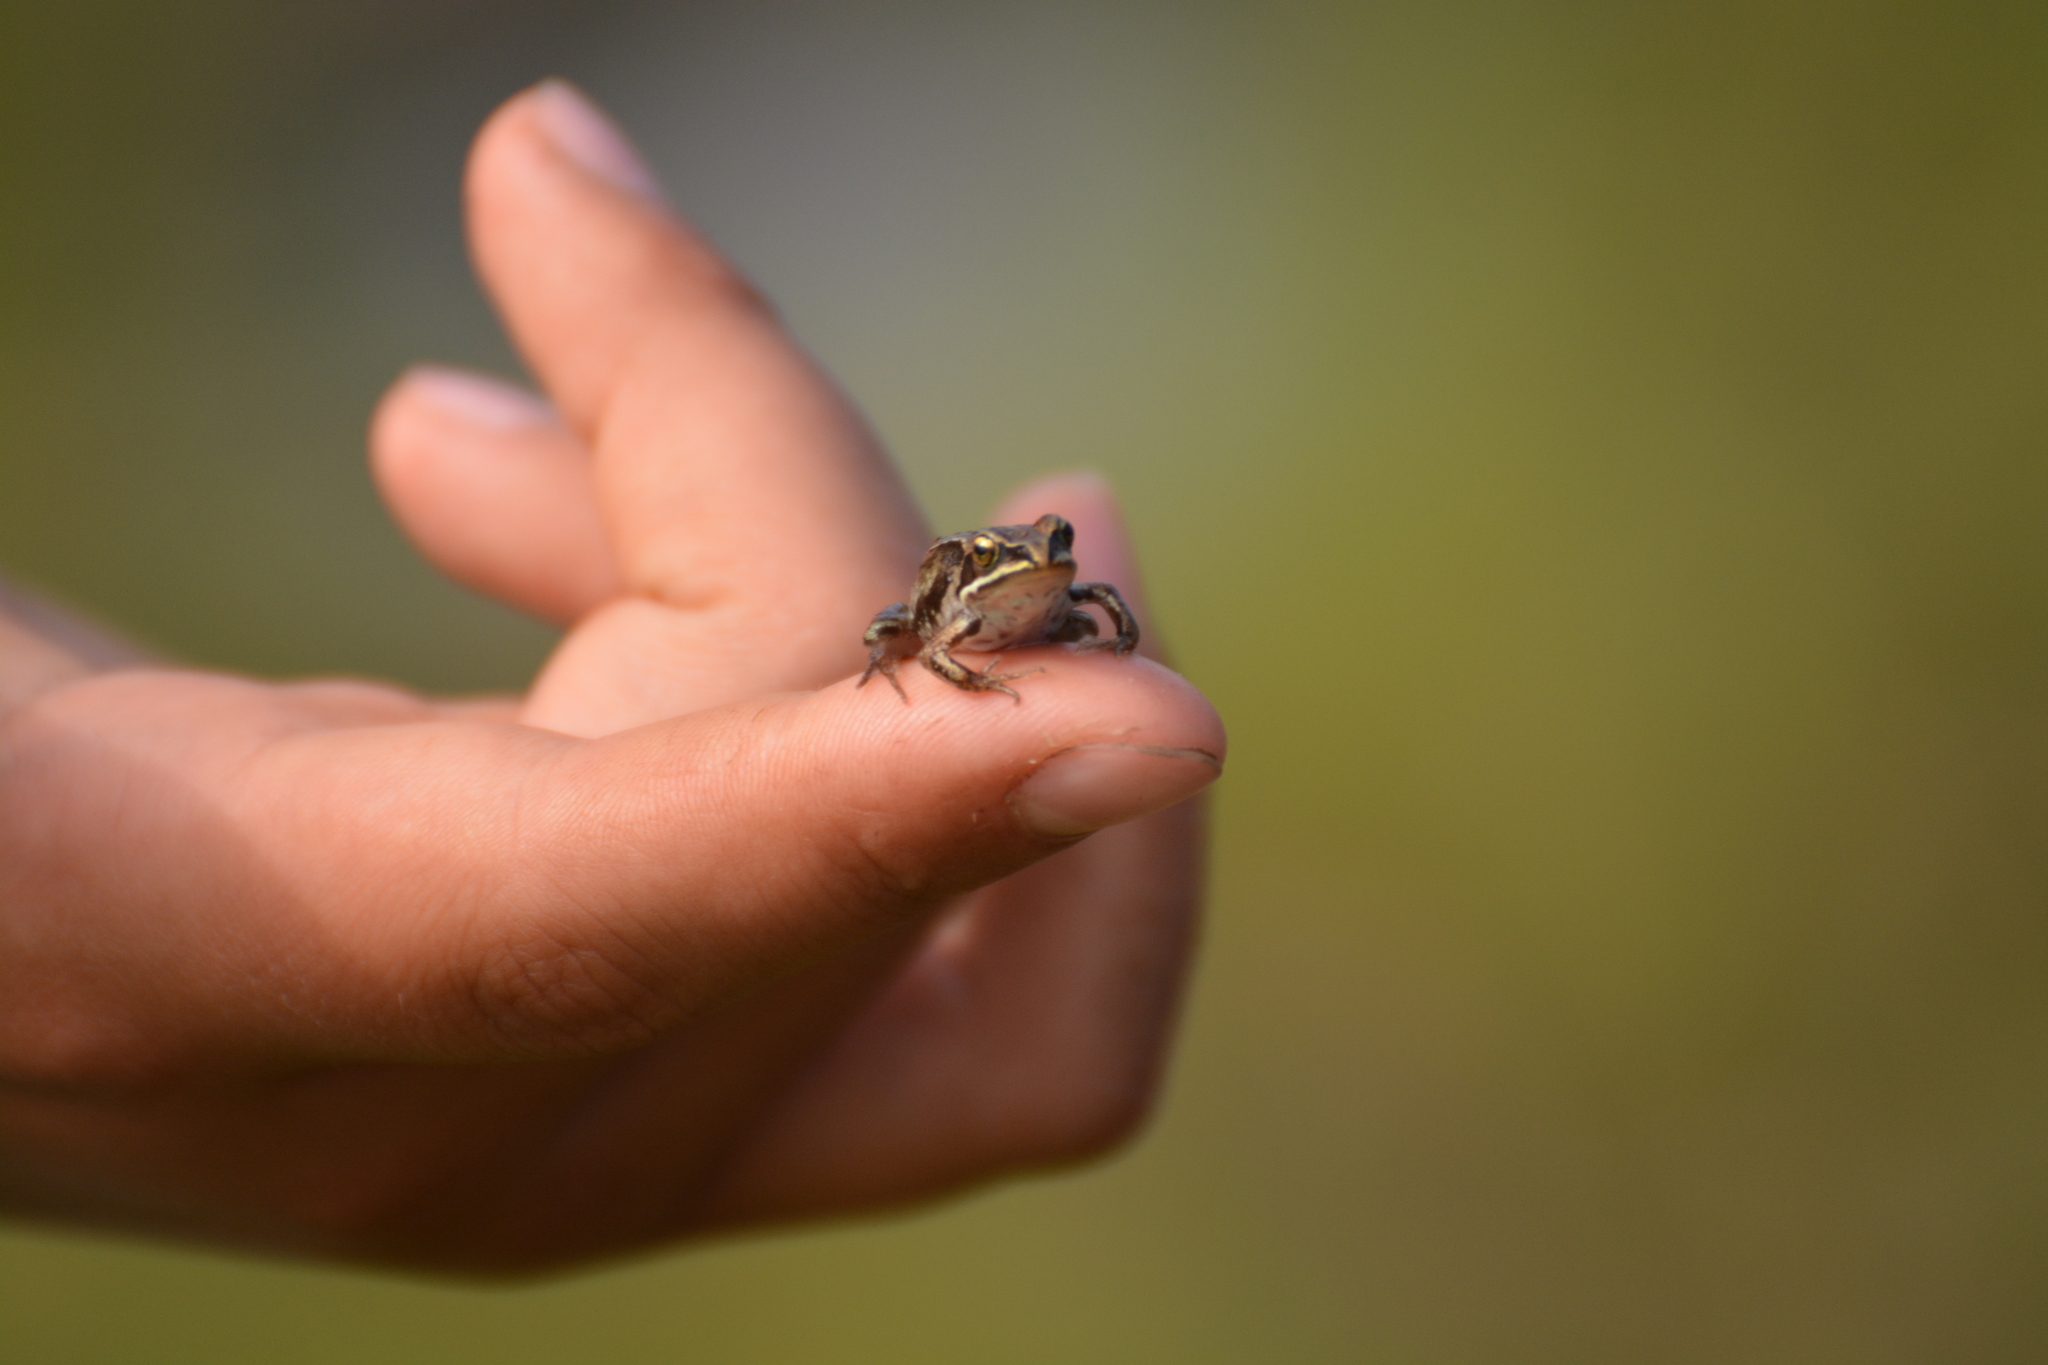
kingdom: Animalia
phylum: Chordata
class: Amphibia
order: Anura
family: Ranidae
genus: Rana
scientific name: Rana amurensis
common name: Amur brown frog
